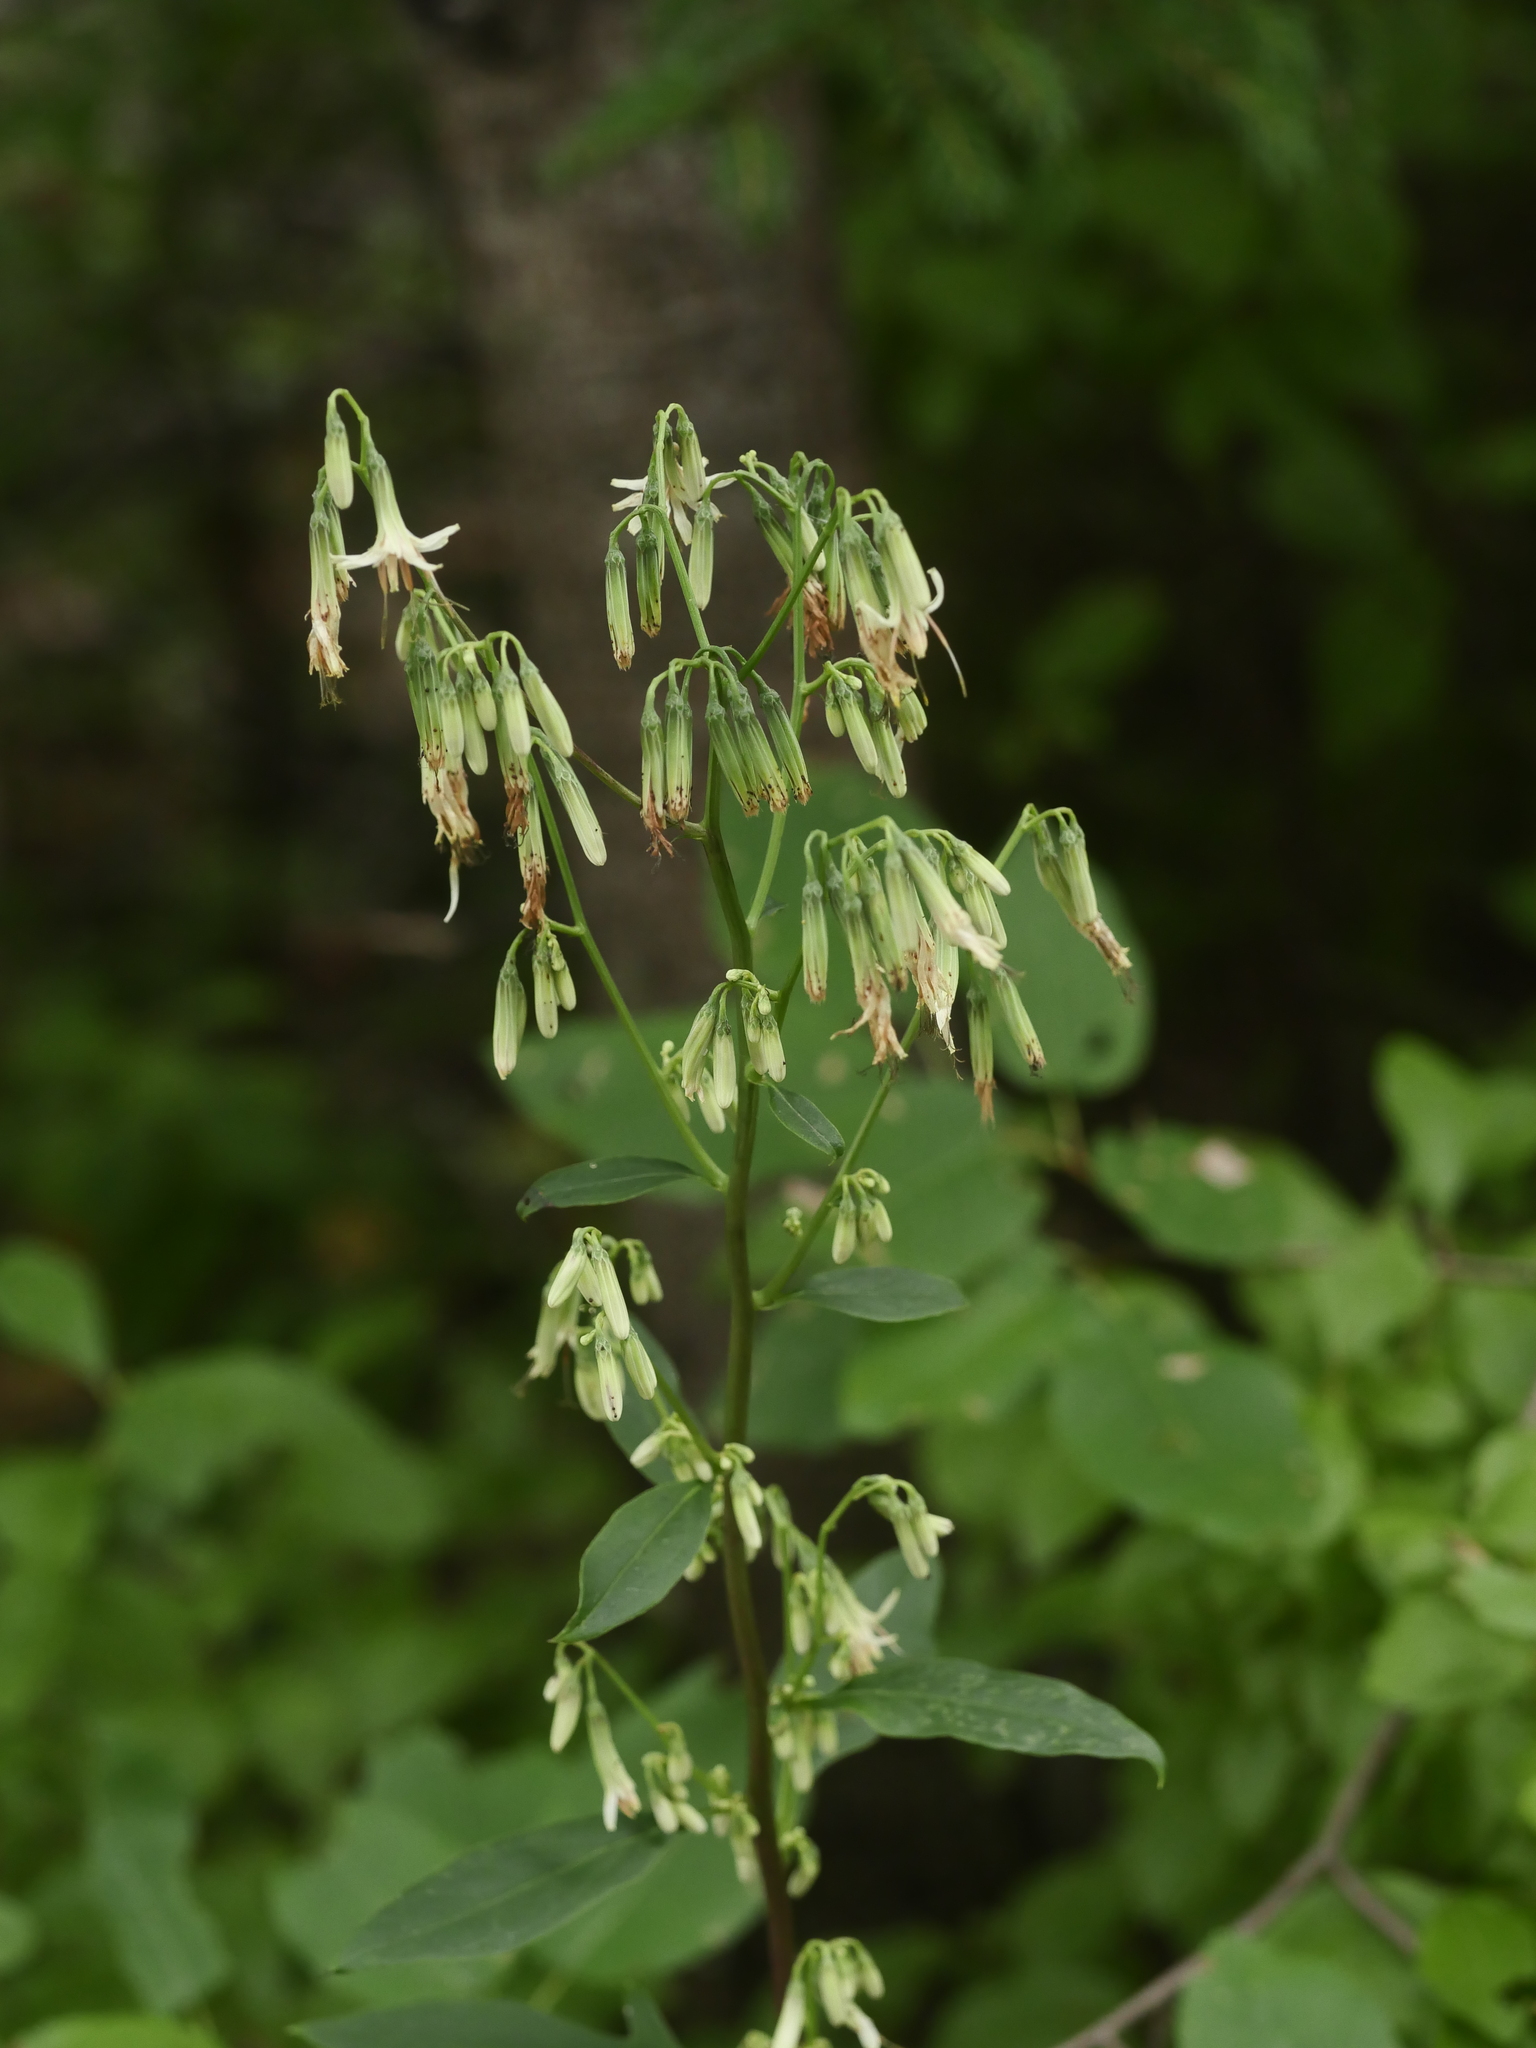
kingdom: Plantae
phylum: Tracheophyta
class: Magnoliopsida
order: Asterales
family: Asteraceae
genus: Nabalus
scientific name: Nabalus trifoliolatus
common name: Gall-of-the-earth
